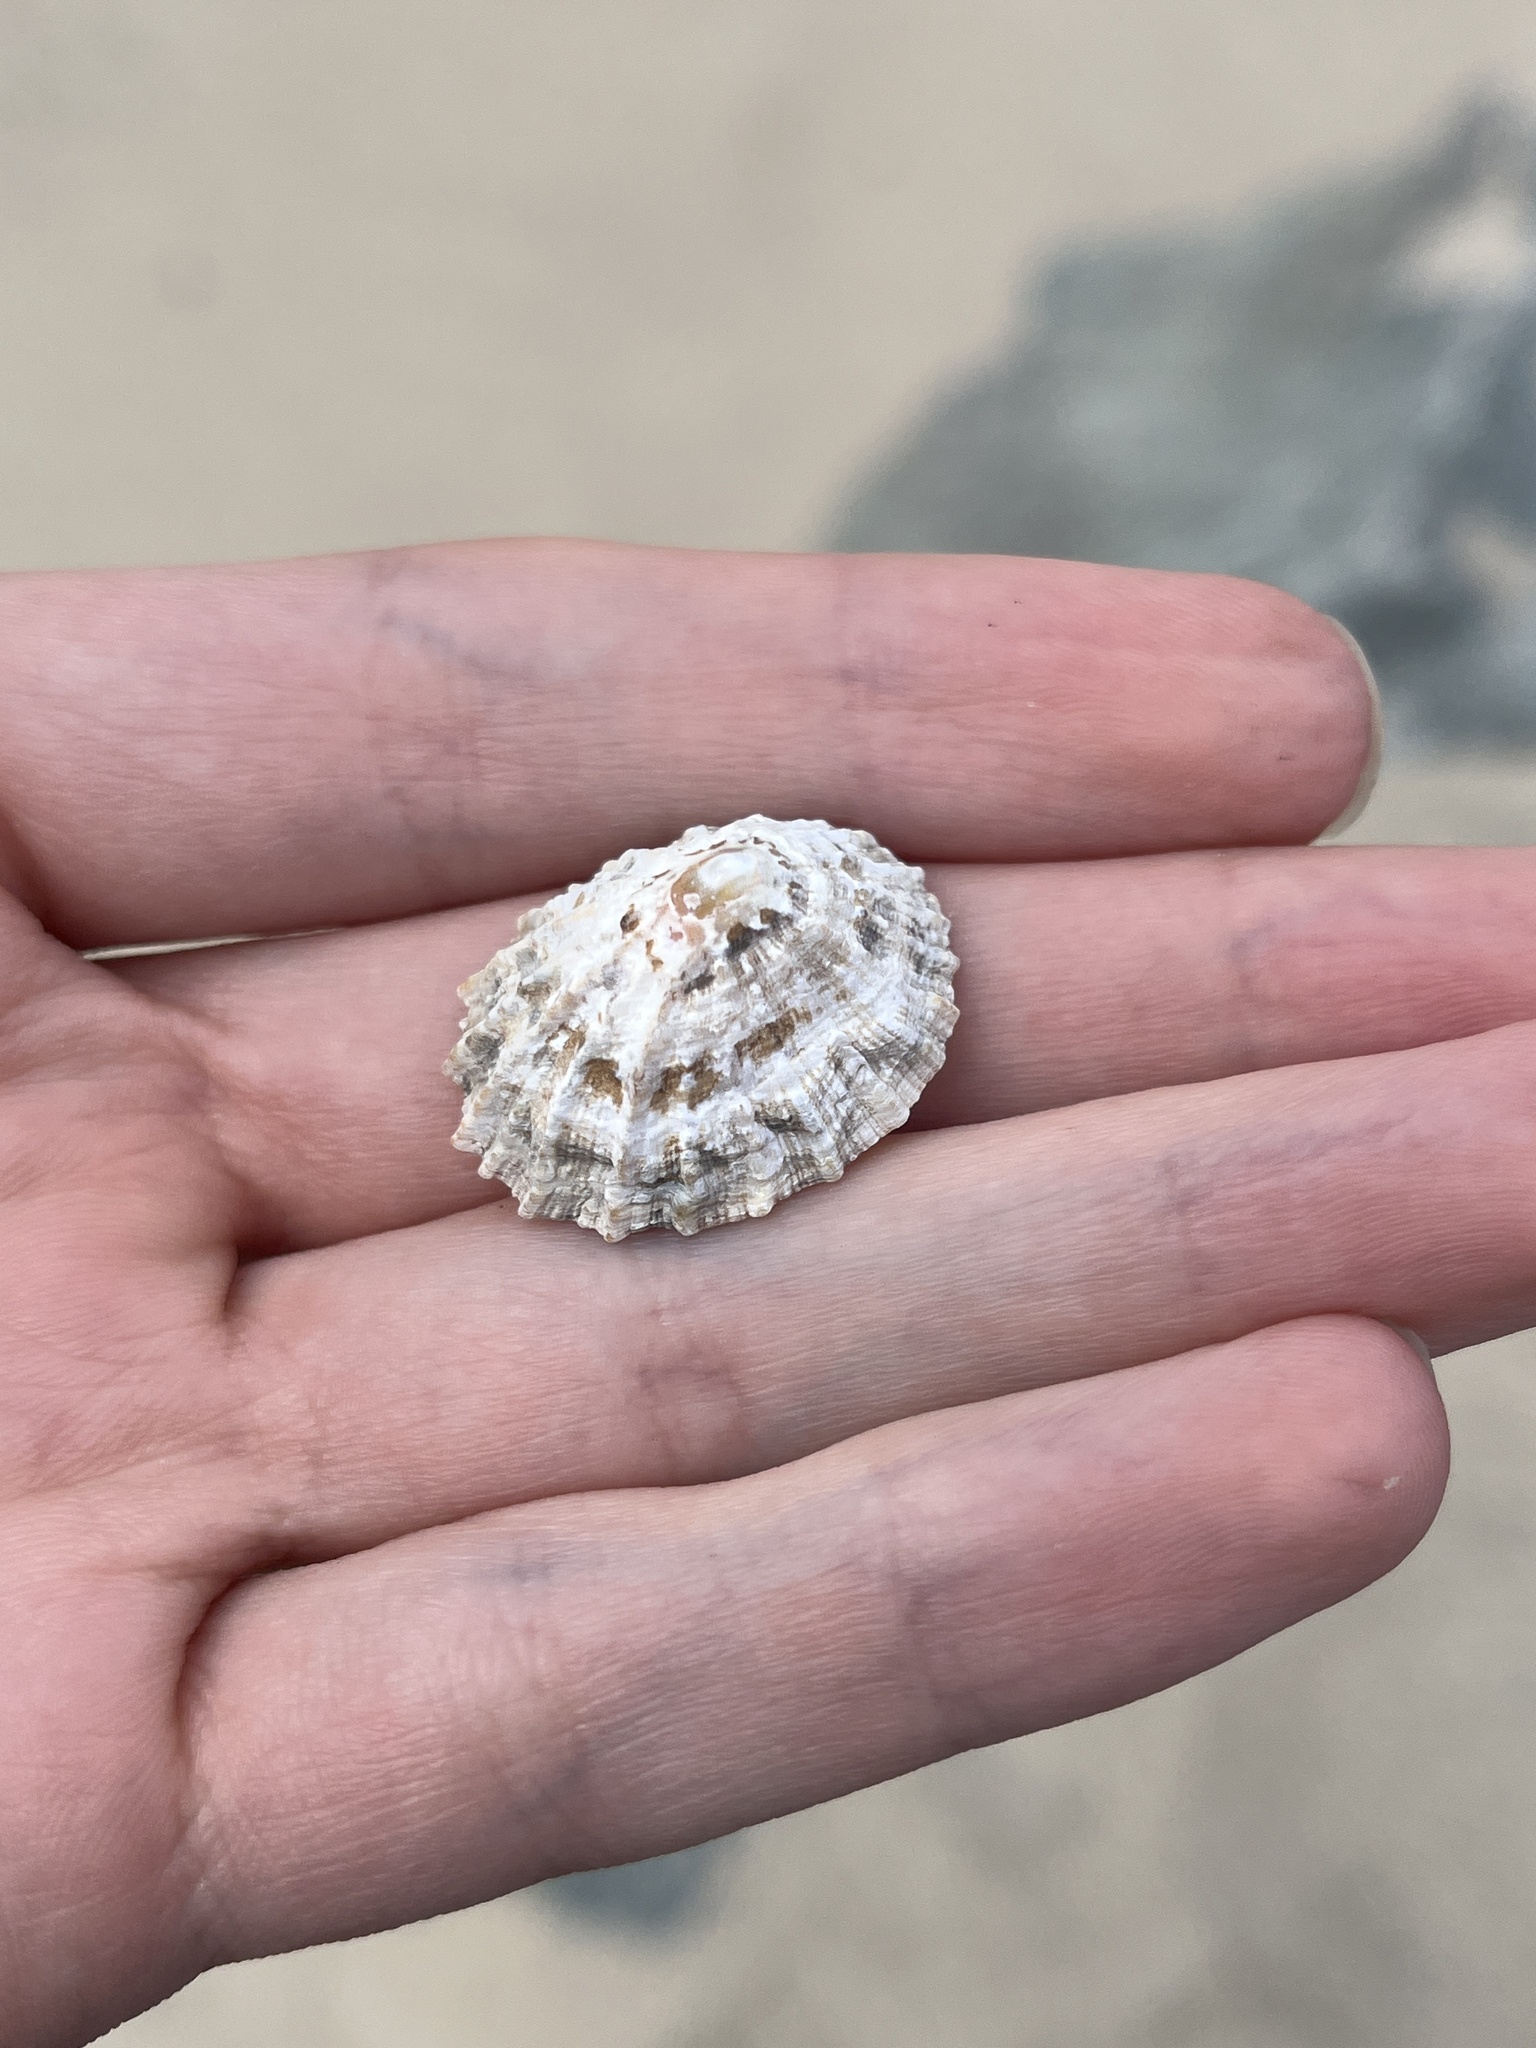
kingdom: Animalia
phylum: Mollusca
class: Gastropoda
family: Patellidae
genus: Patella
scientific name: Patella vulgata
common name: Common limpet
